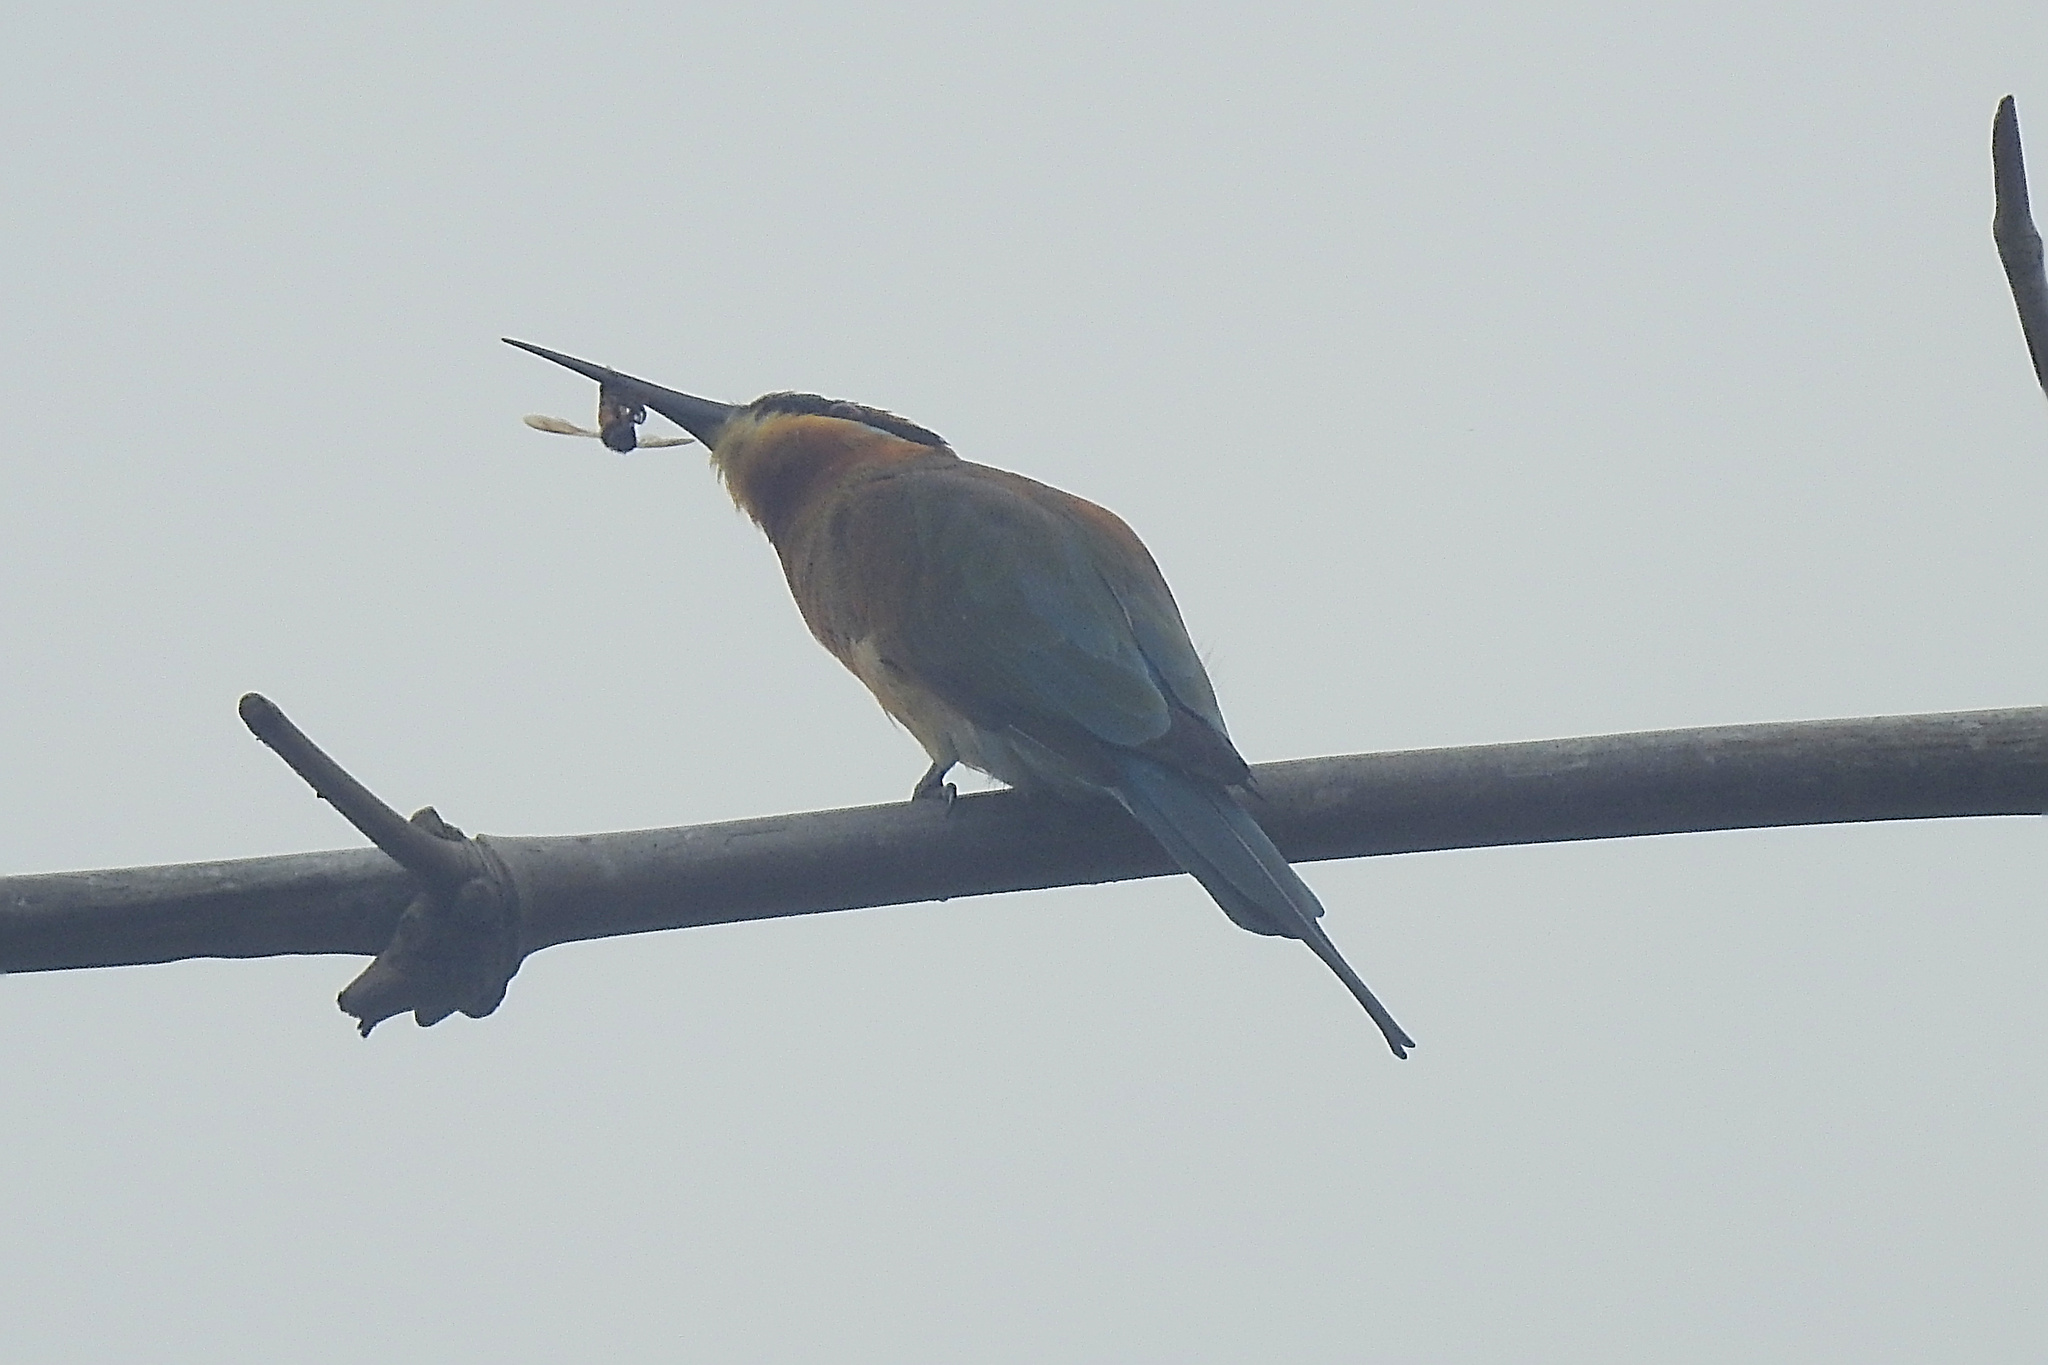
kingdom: Animalia
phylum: Chordata
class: Aves
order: Coraciiformes
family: Meropidae
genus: Merops
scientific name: Merops philippinus
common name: Blue-tailed bee-eater
